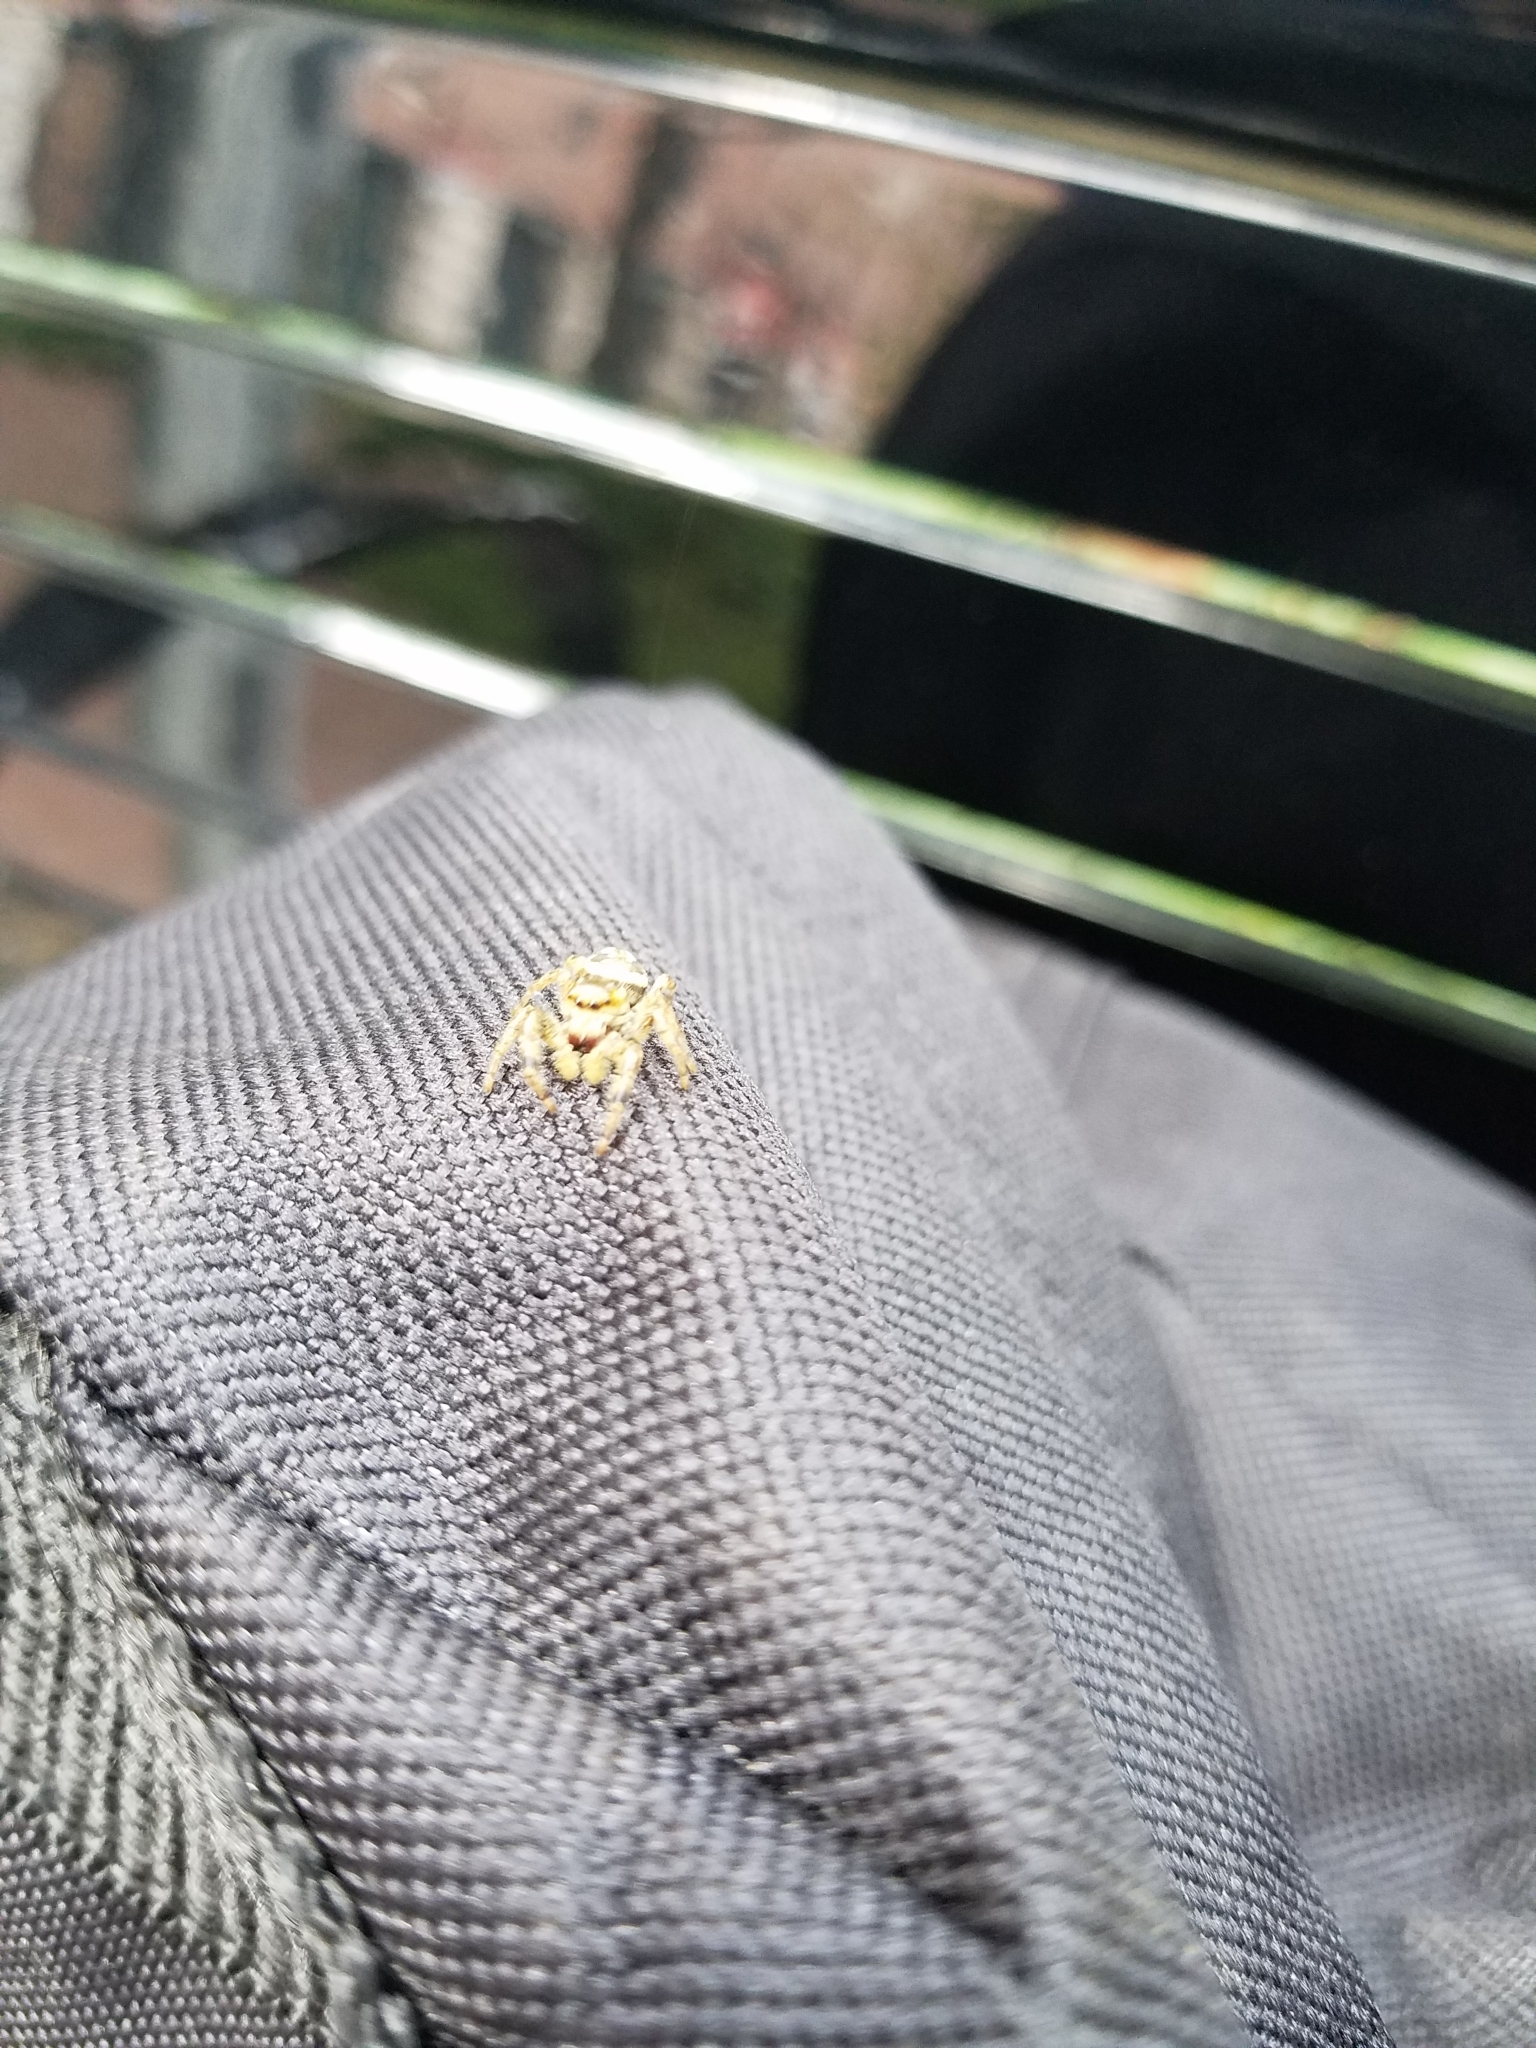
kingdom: Animalia
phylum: Arthropoda
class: Arachnida
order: Araneae
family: Salticidae
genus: Paraphidippus
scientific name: Paraphidippus aurantius
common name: Jumping spiders
